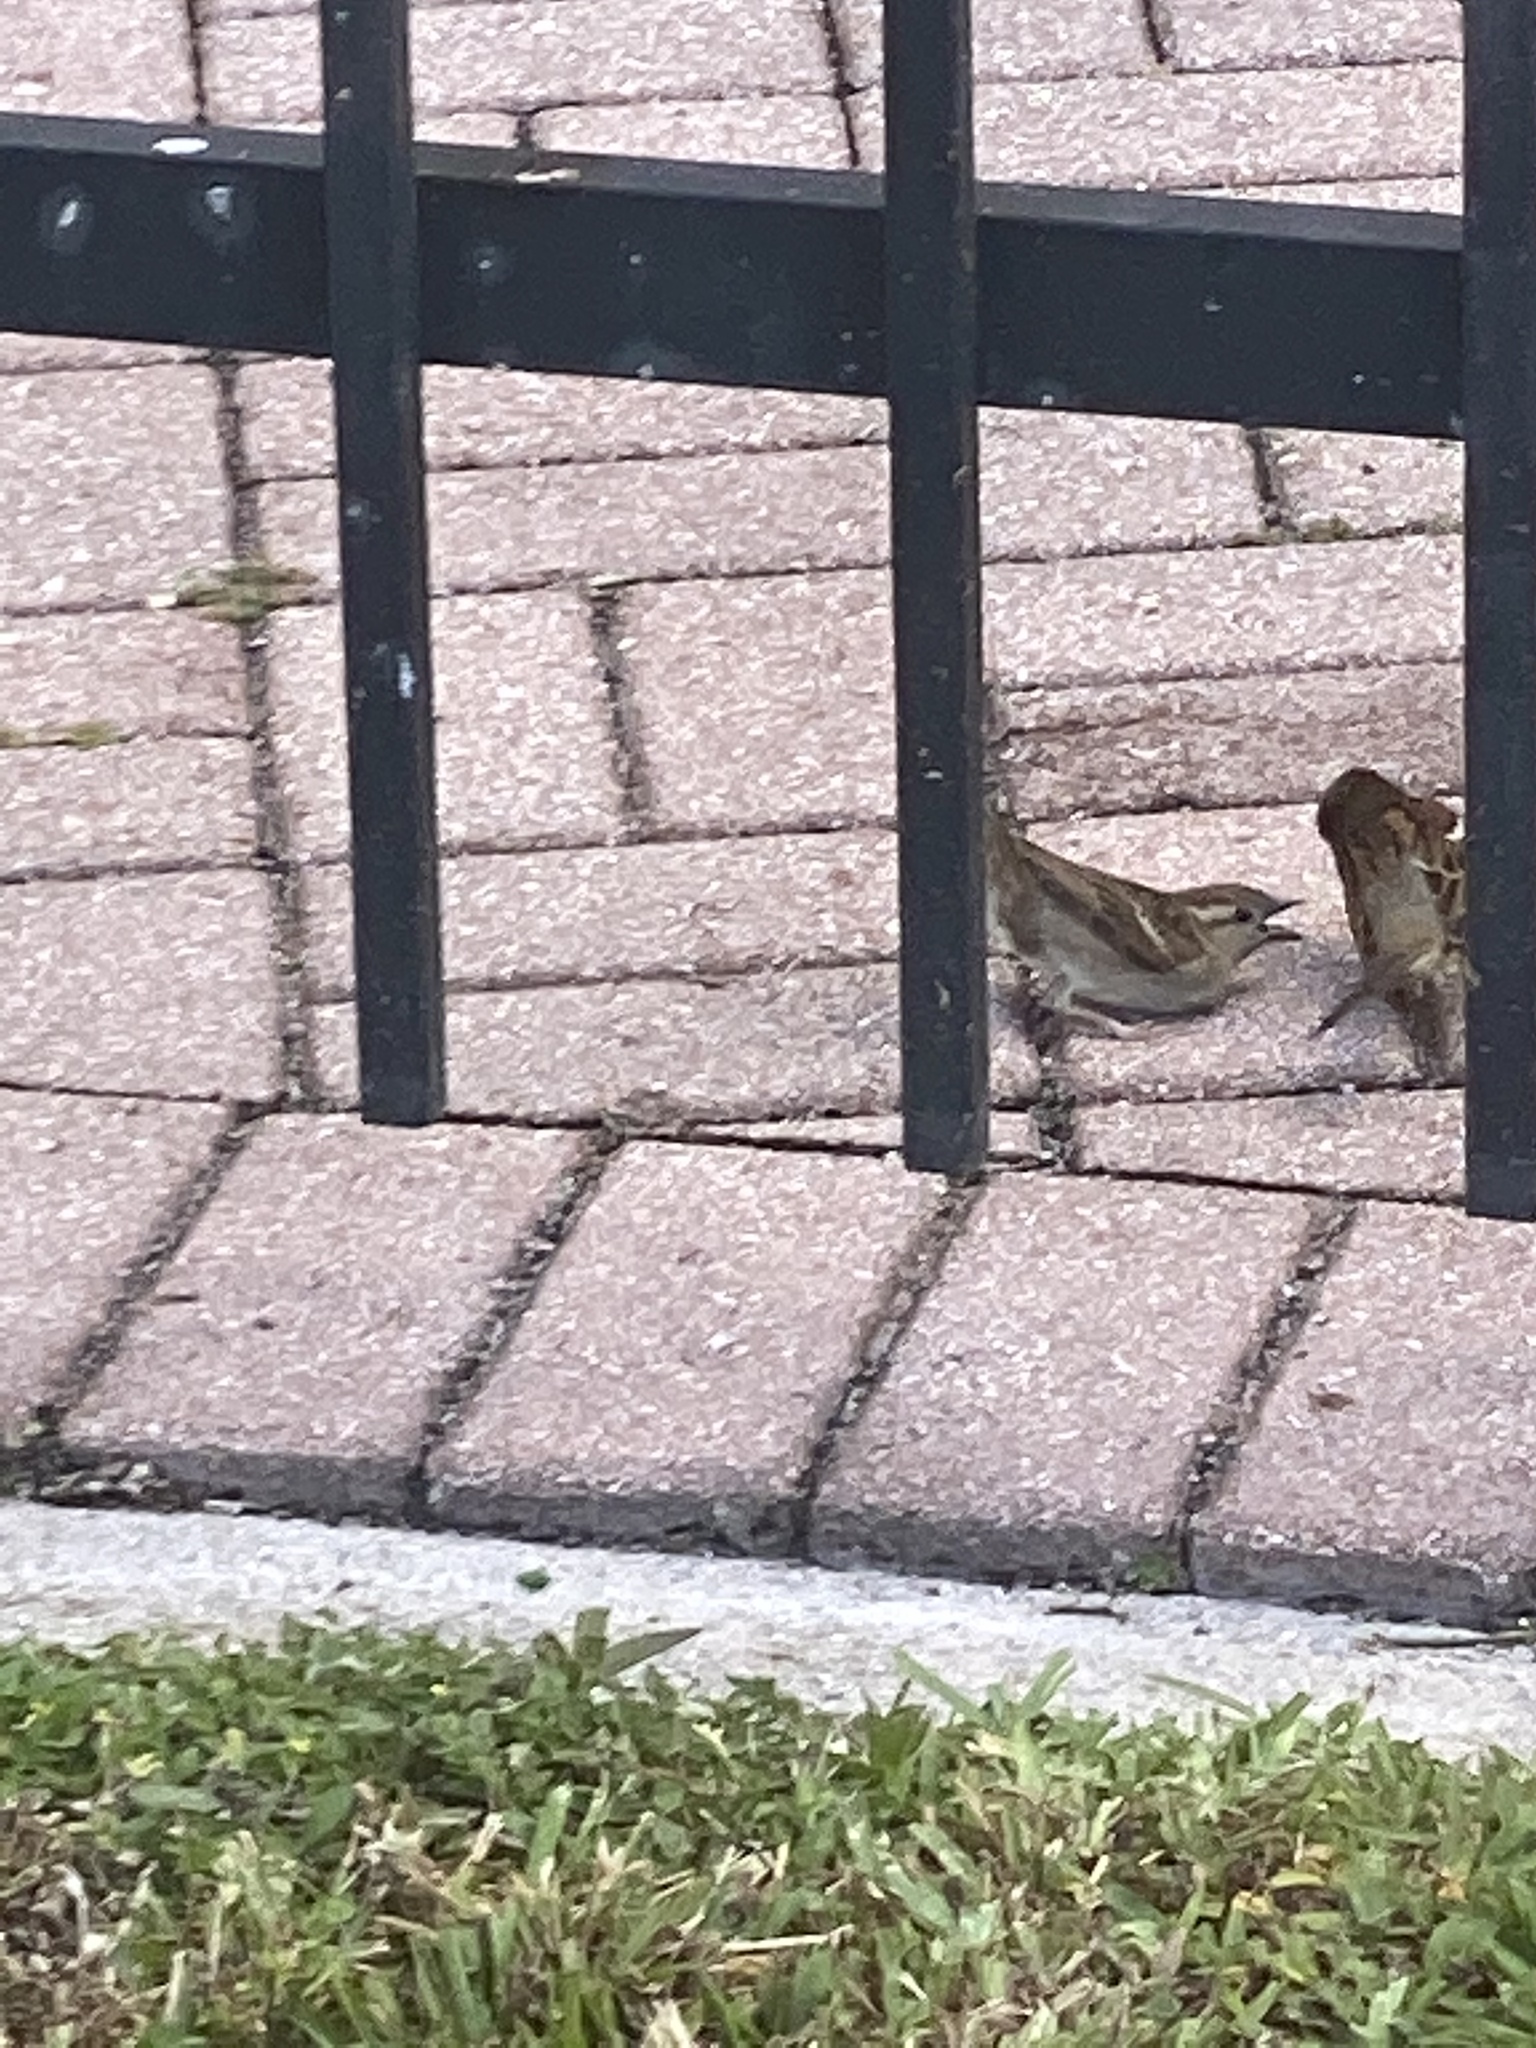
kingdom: Animalia
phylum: Chordata
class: Aves
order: Passeriformes
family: Passeridae
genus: Passer
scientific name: Passer domesticus
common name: House sparrow
